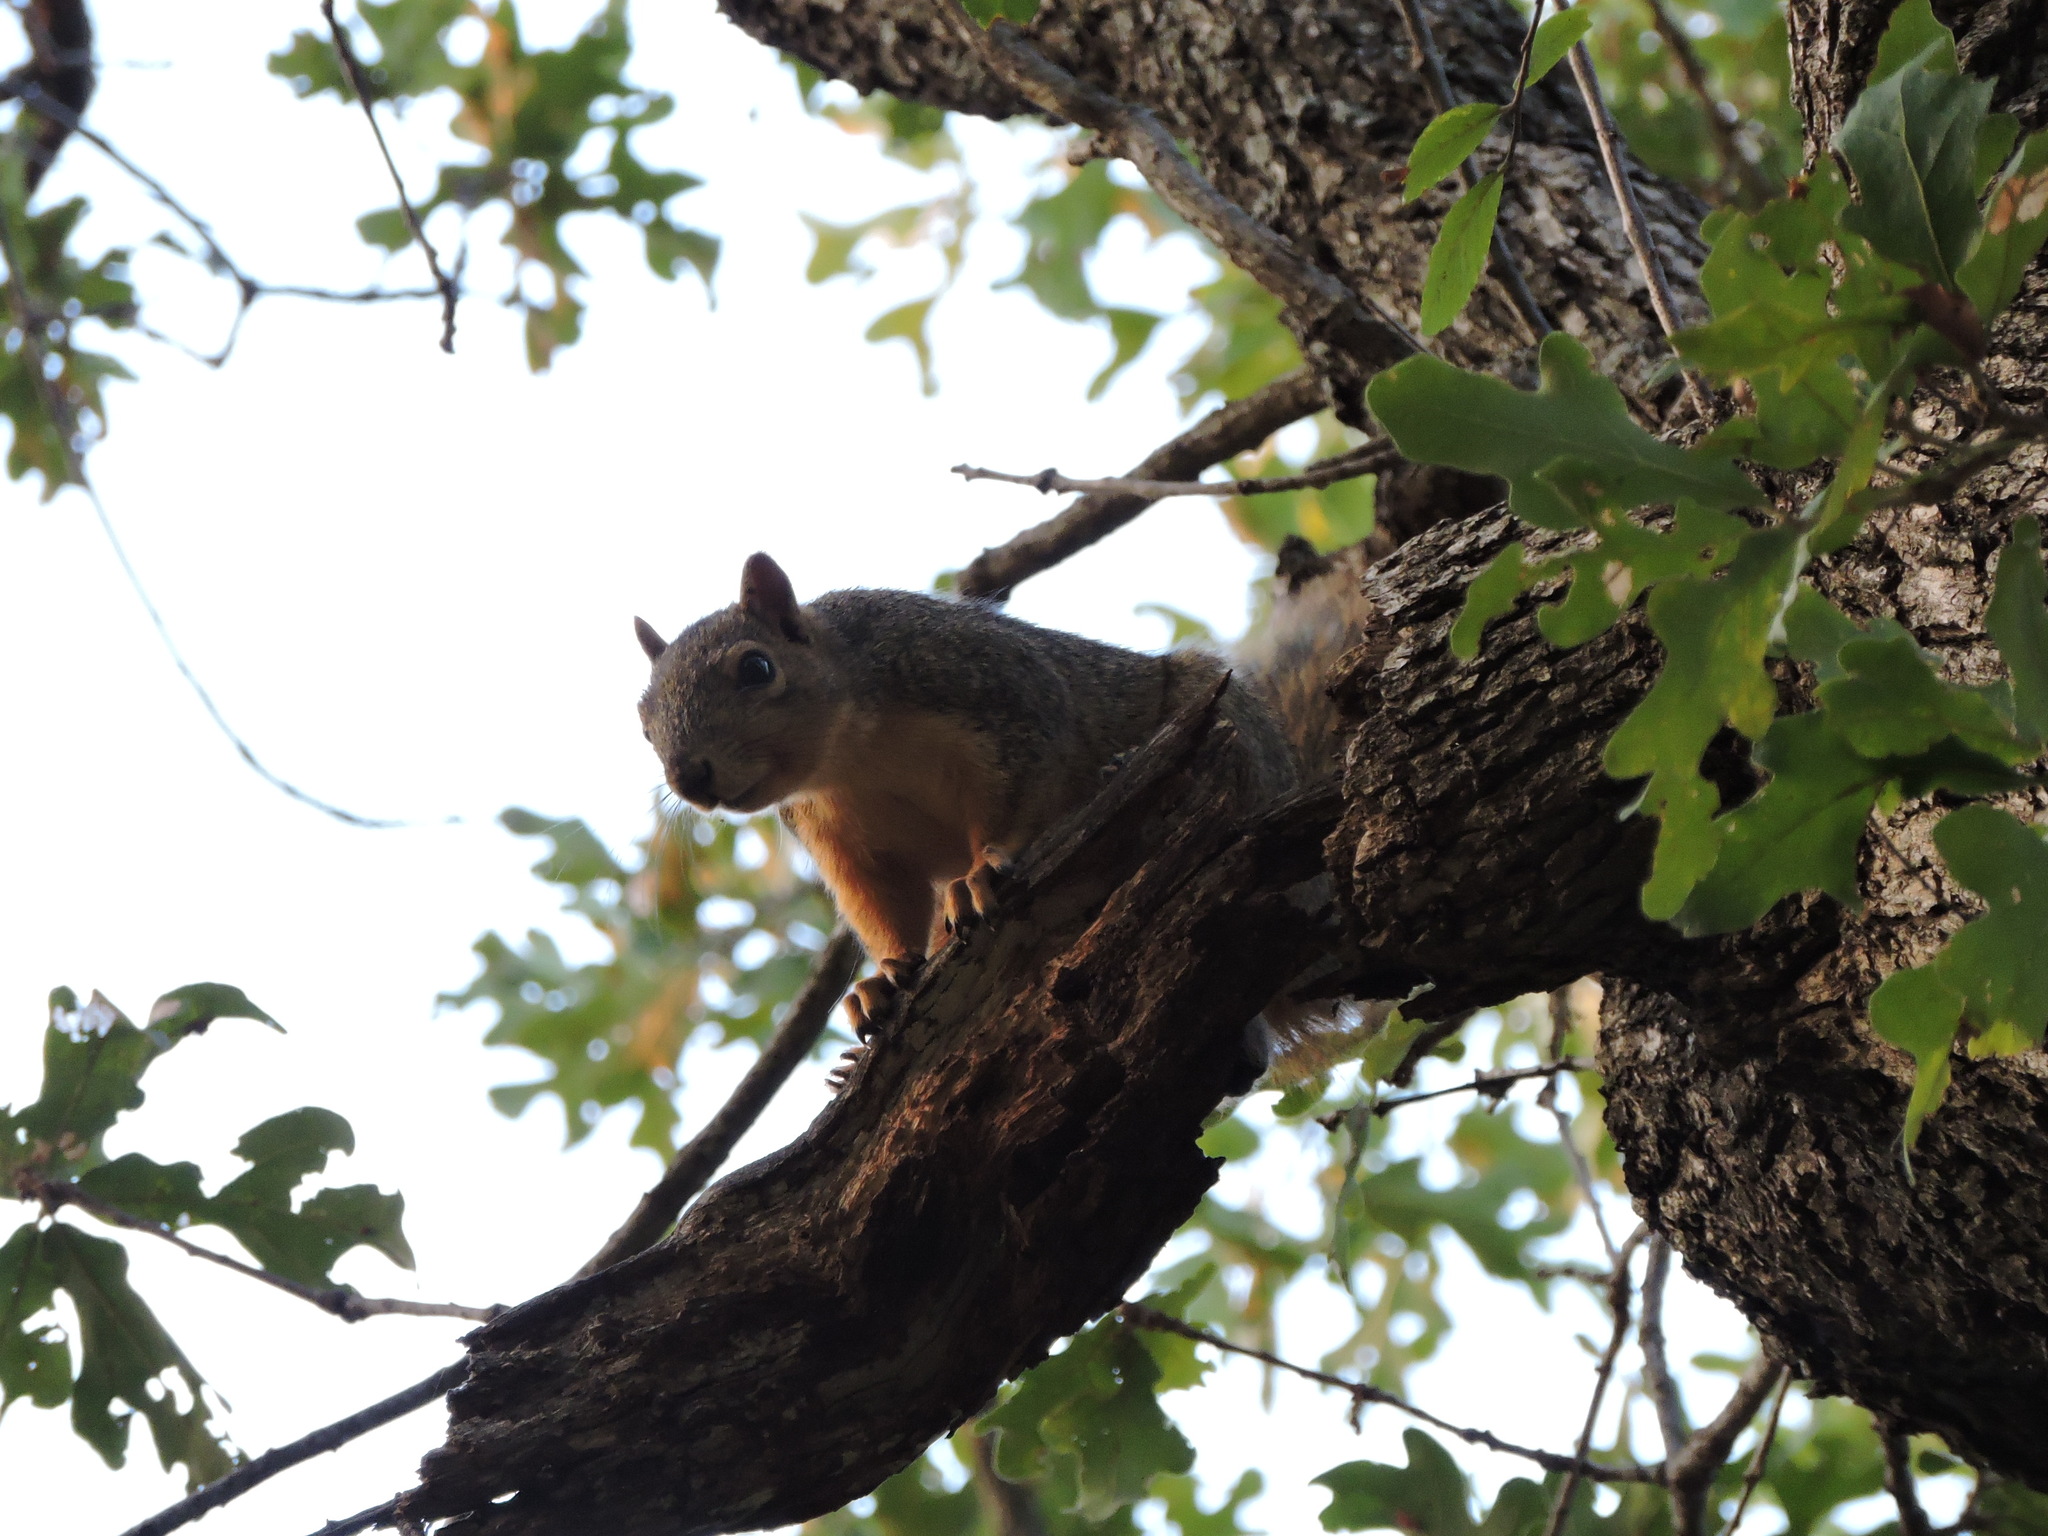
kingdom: Animalia
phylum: Chordata
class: Mammalia
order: Rodentia
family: Sciuridae
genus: Sciurus
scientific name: Sciurus niger
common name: Fox squirrel
